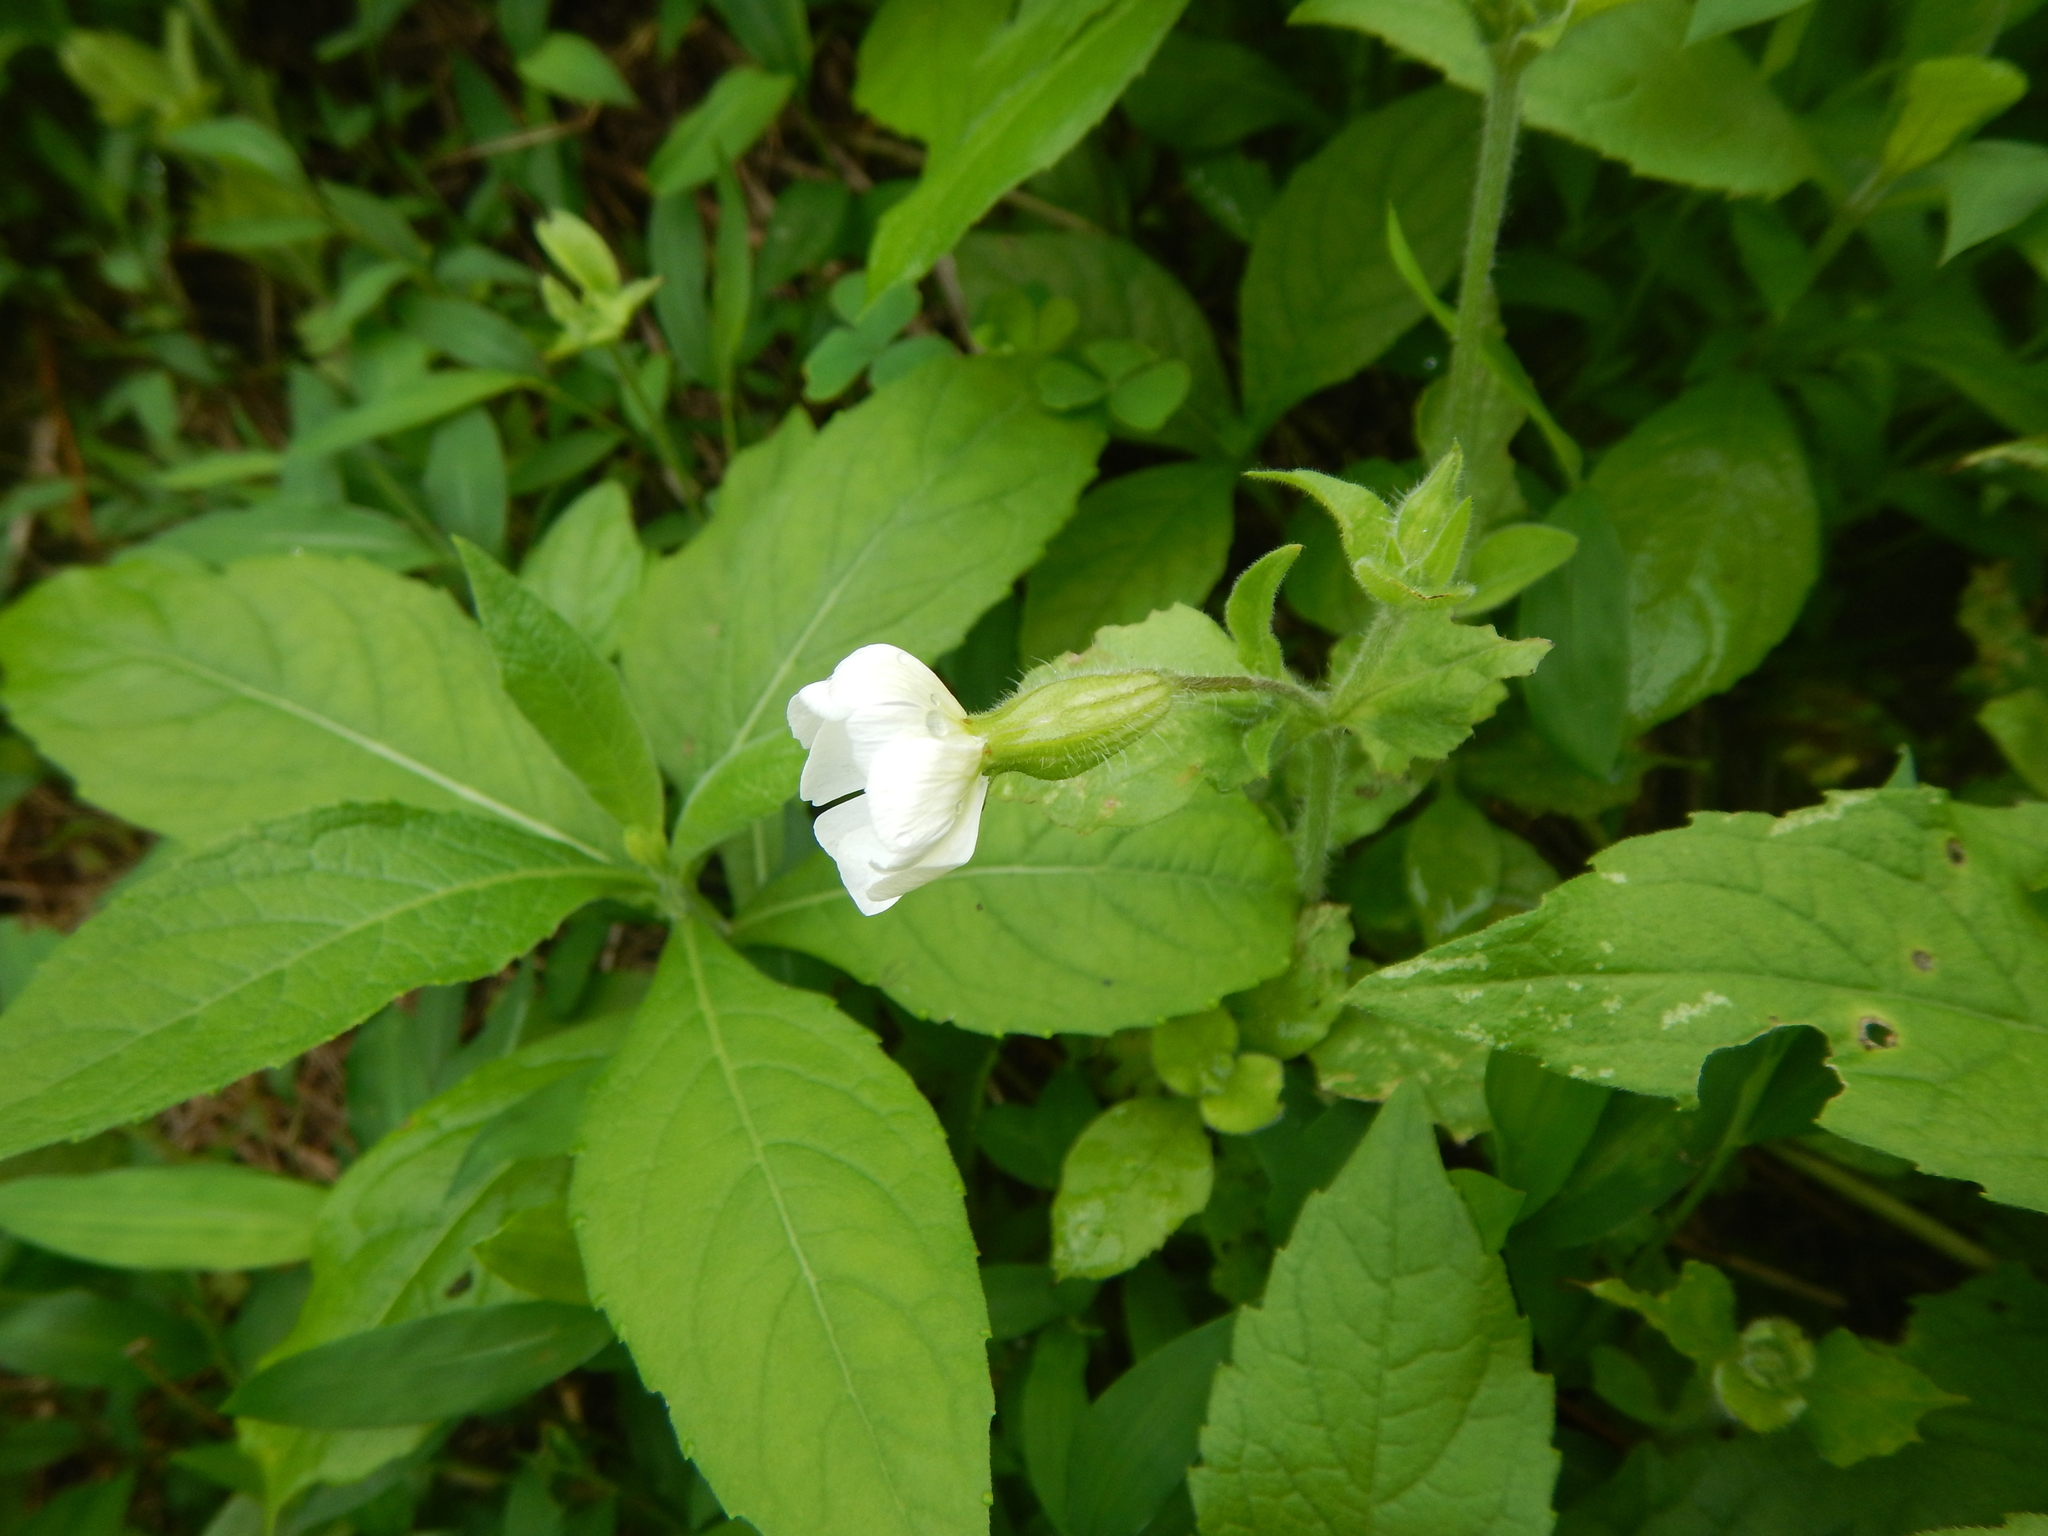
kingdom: Plantae
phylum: Tracheophyta
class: Magnoliopsida
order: Caryophyllales
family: Caryophyllaceae
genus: Silene
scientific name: Silene latifolia
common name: White campion
